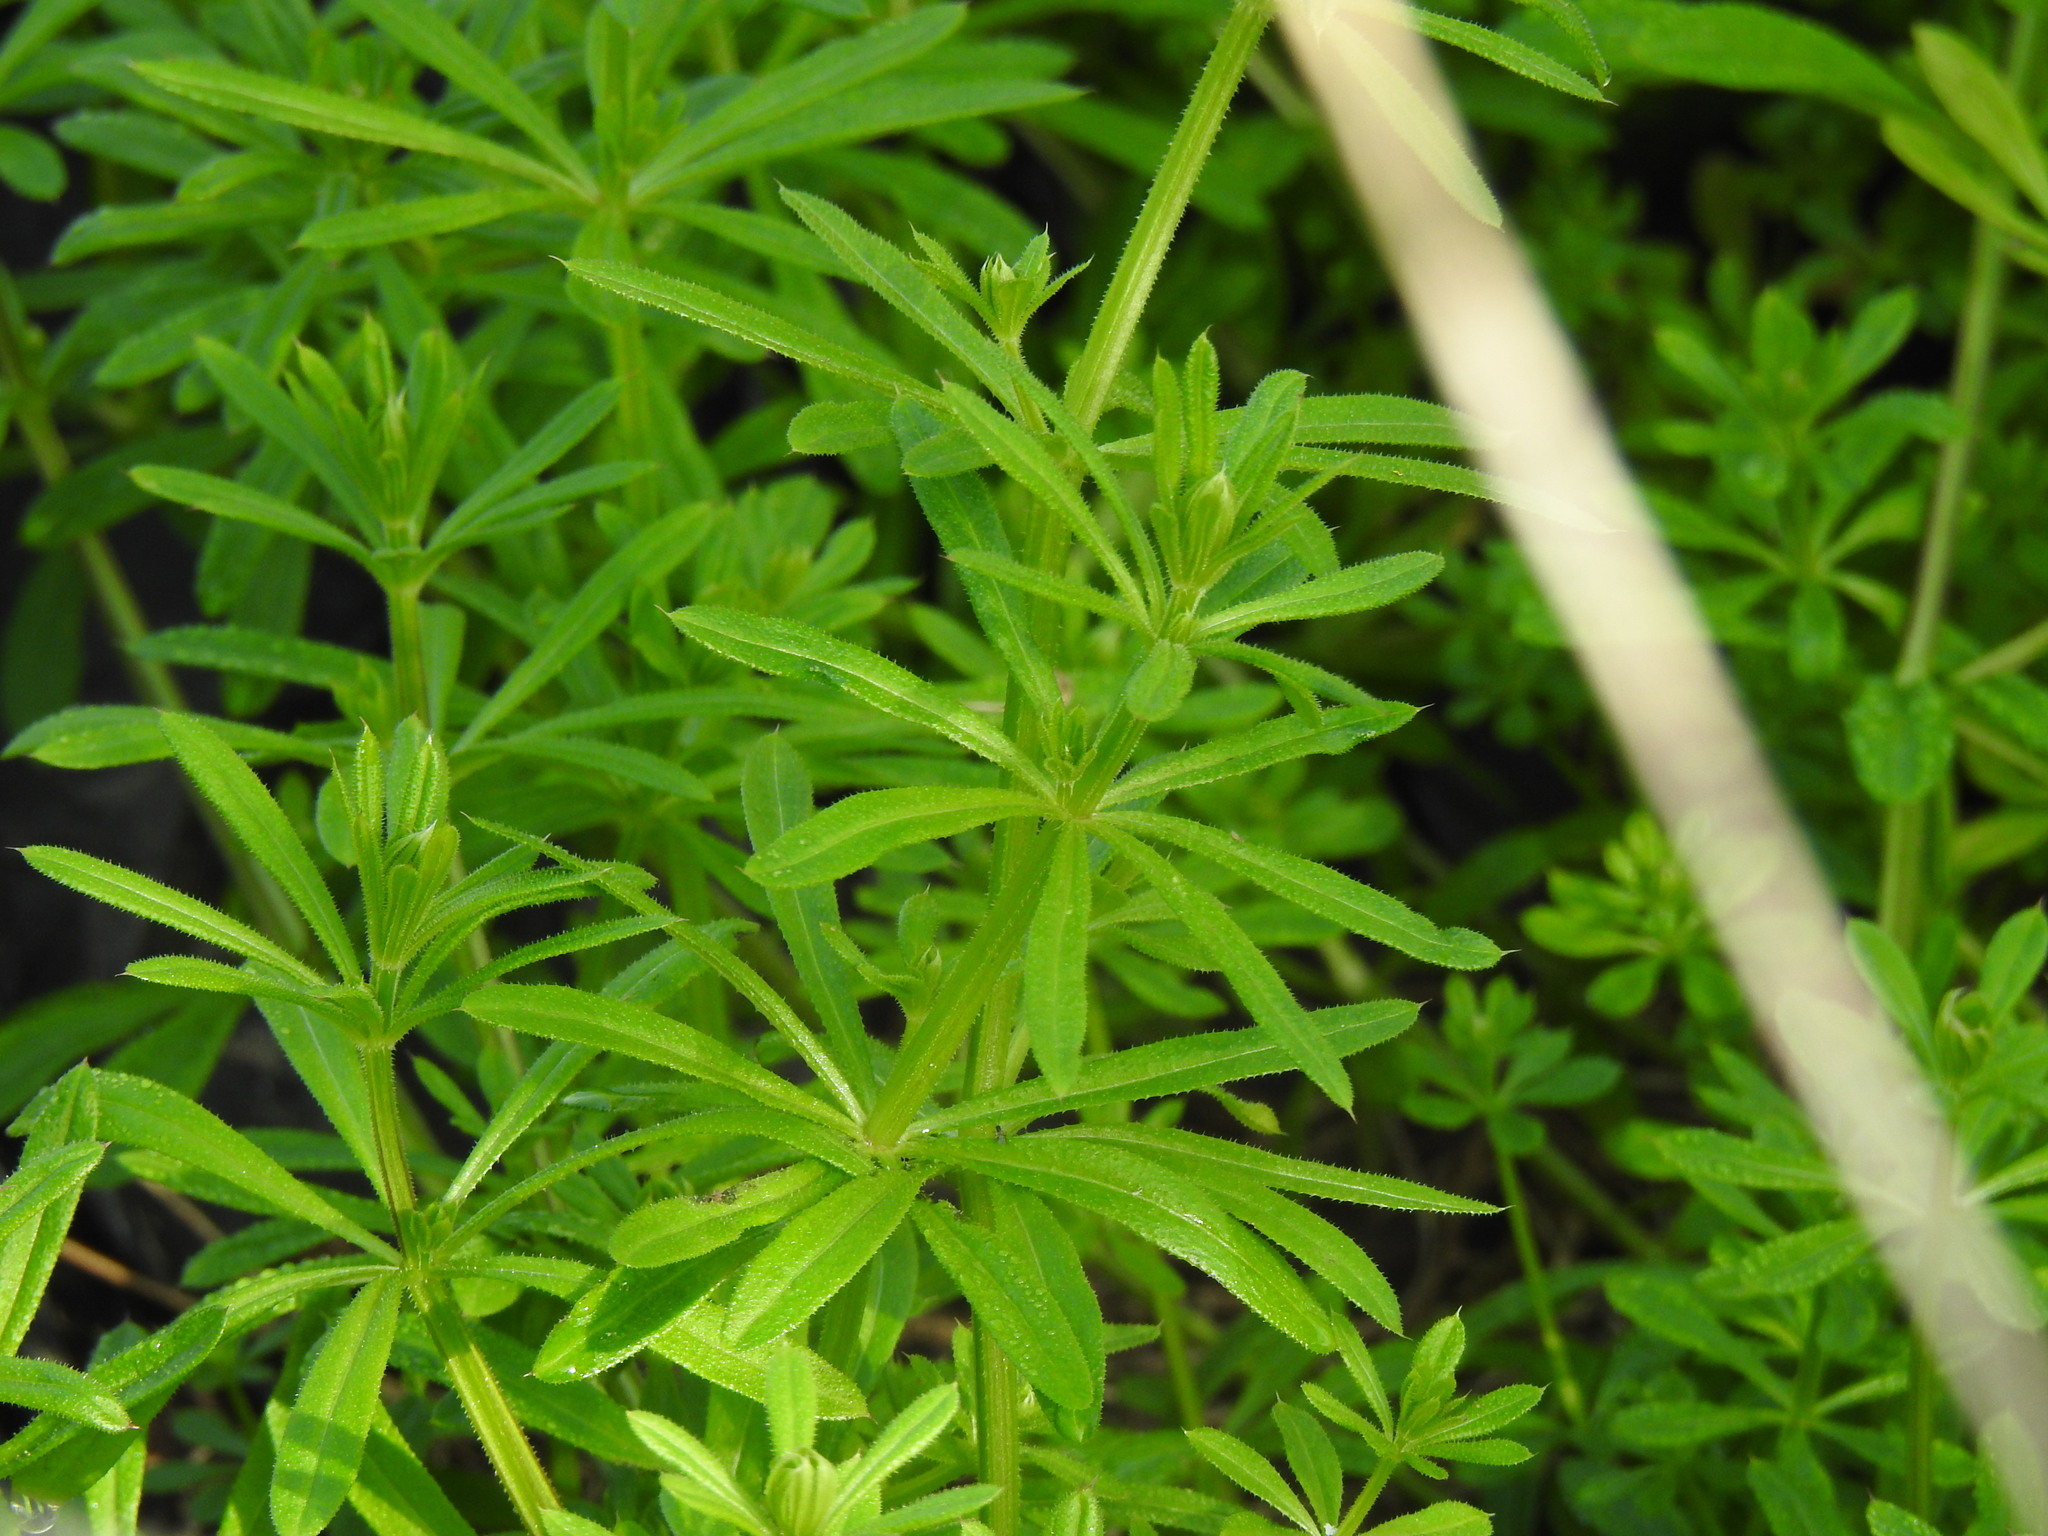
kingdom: Plantae
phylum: Tracheophyta
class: Magnoliopsida
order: Gentianales
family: Rubiaceae
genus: Galium
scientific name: Galium aparine
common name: Cleavers
